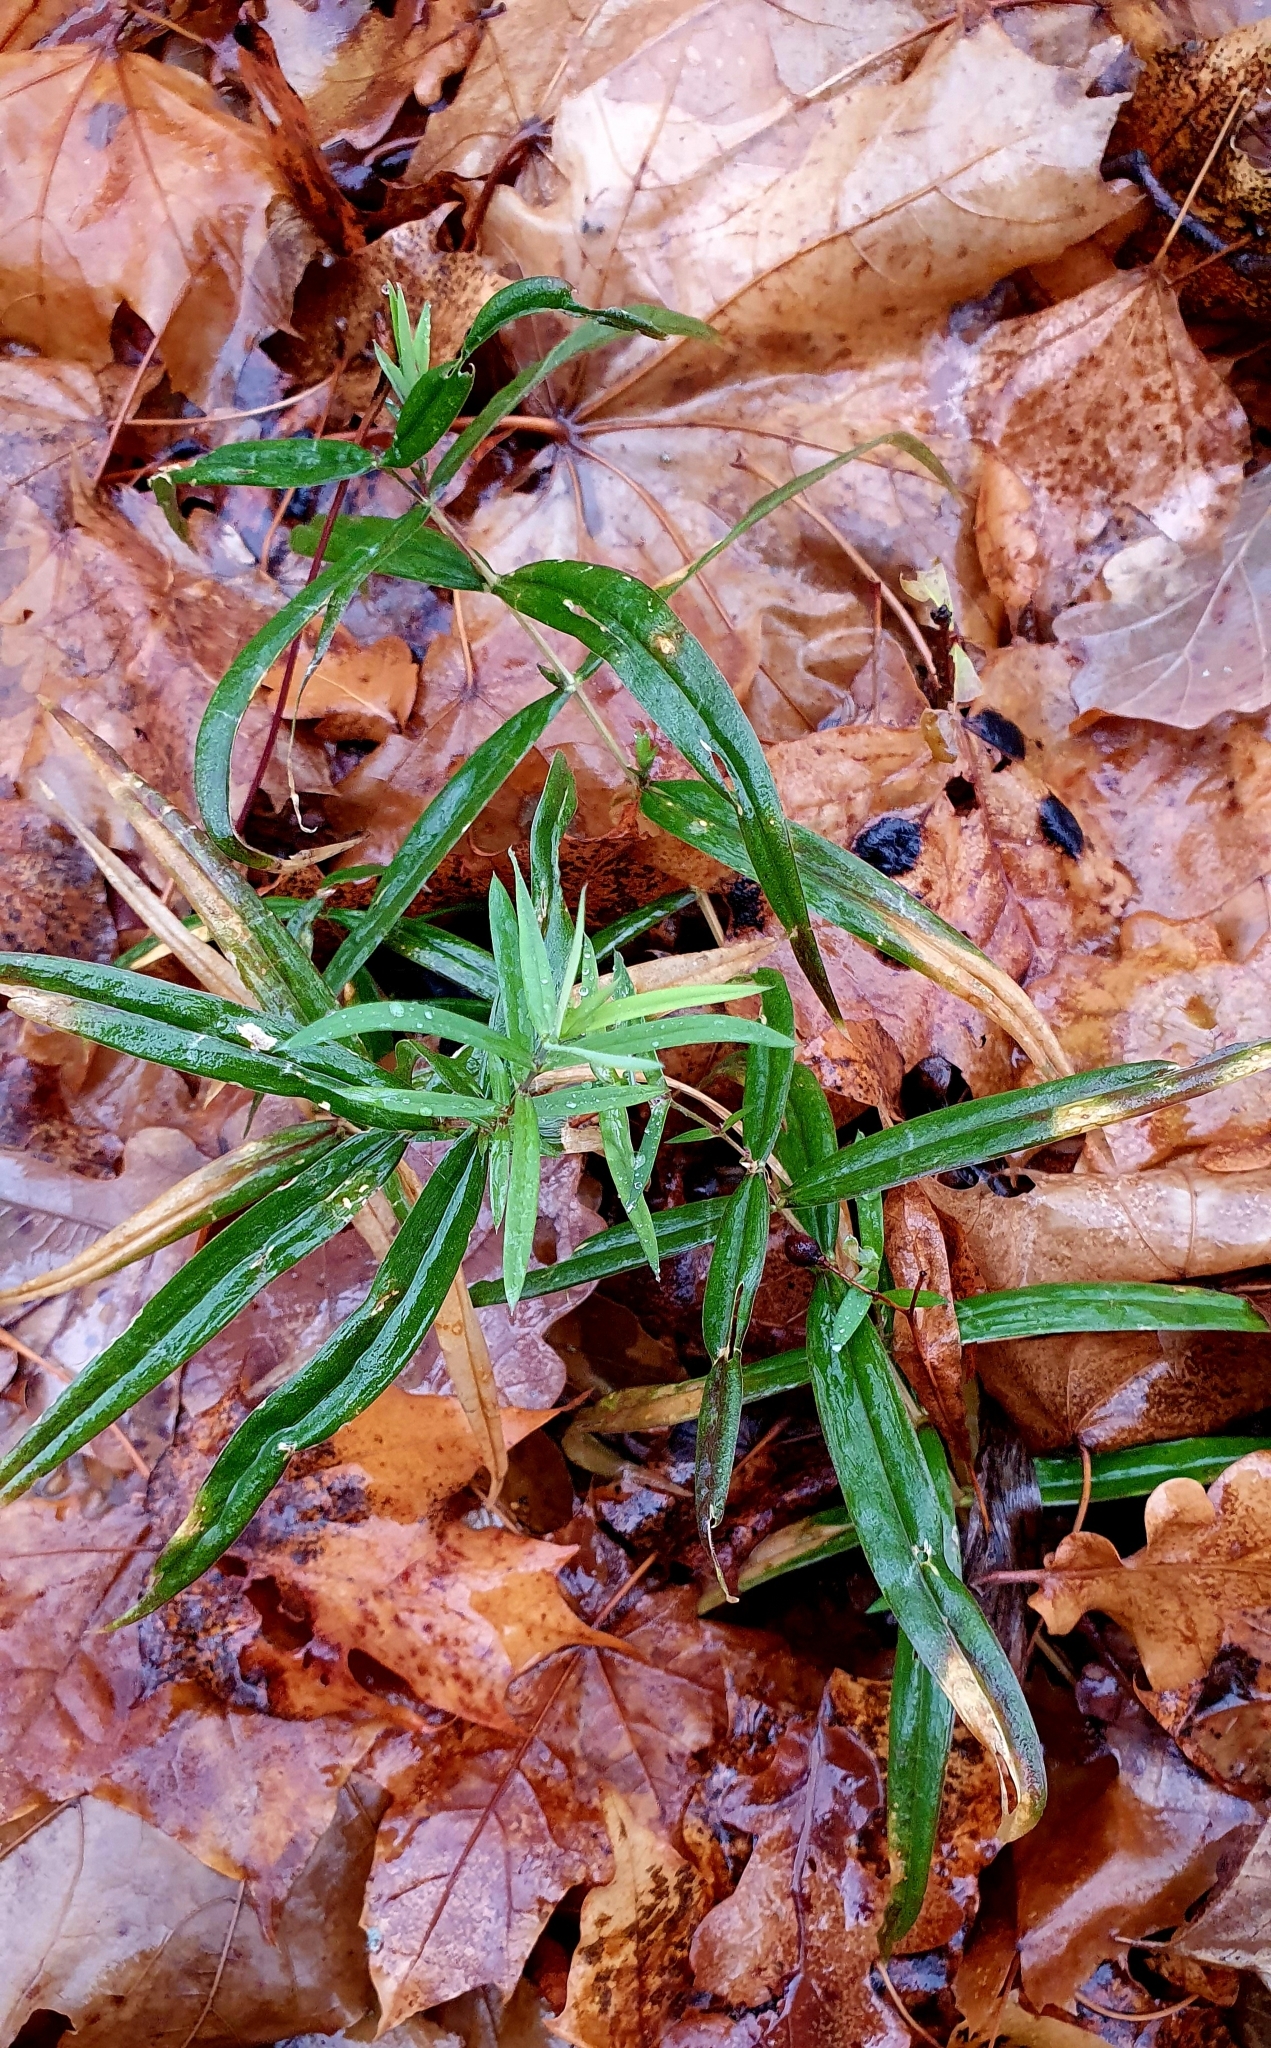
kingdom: Plantae
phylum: Tracheophyta
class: Magnoliopsida
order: Caryophyllales
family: Caryophyllaceae
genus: Rabelera
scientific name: Rabelera holostea
